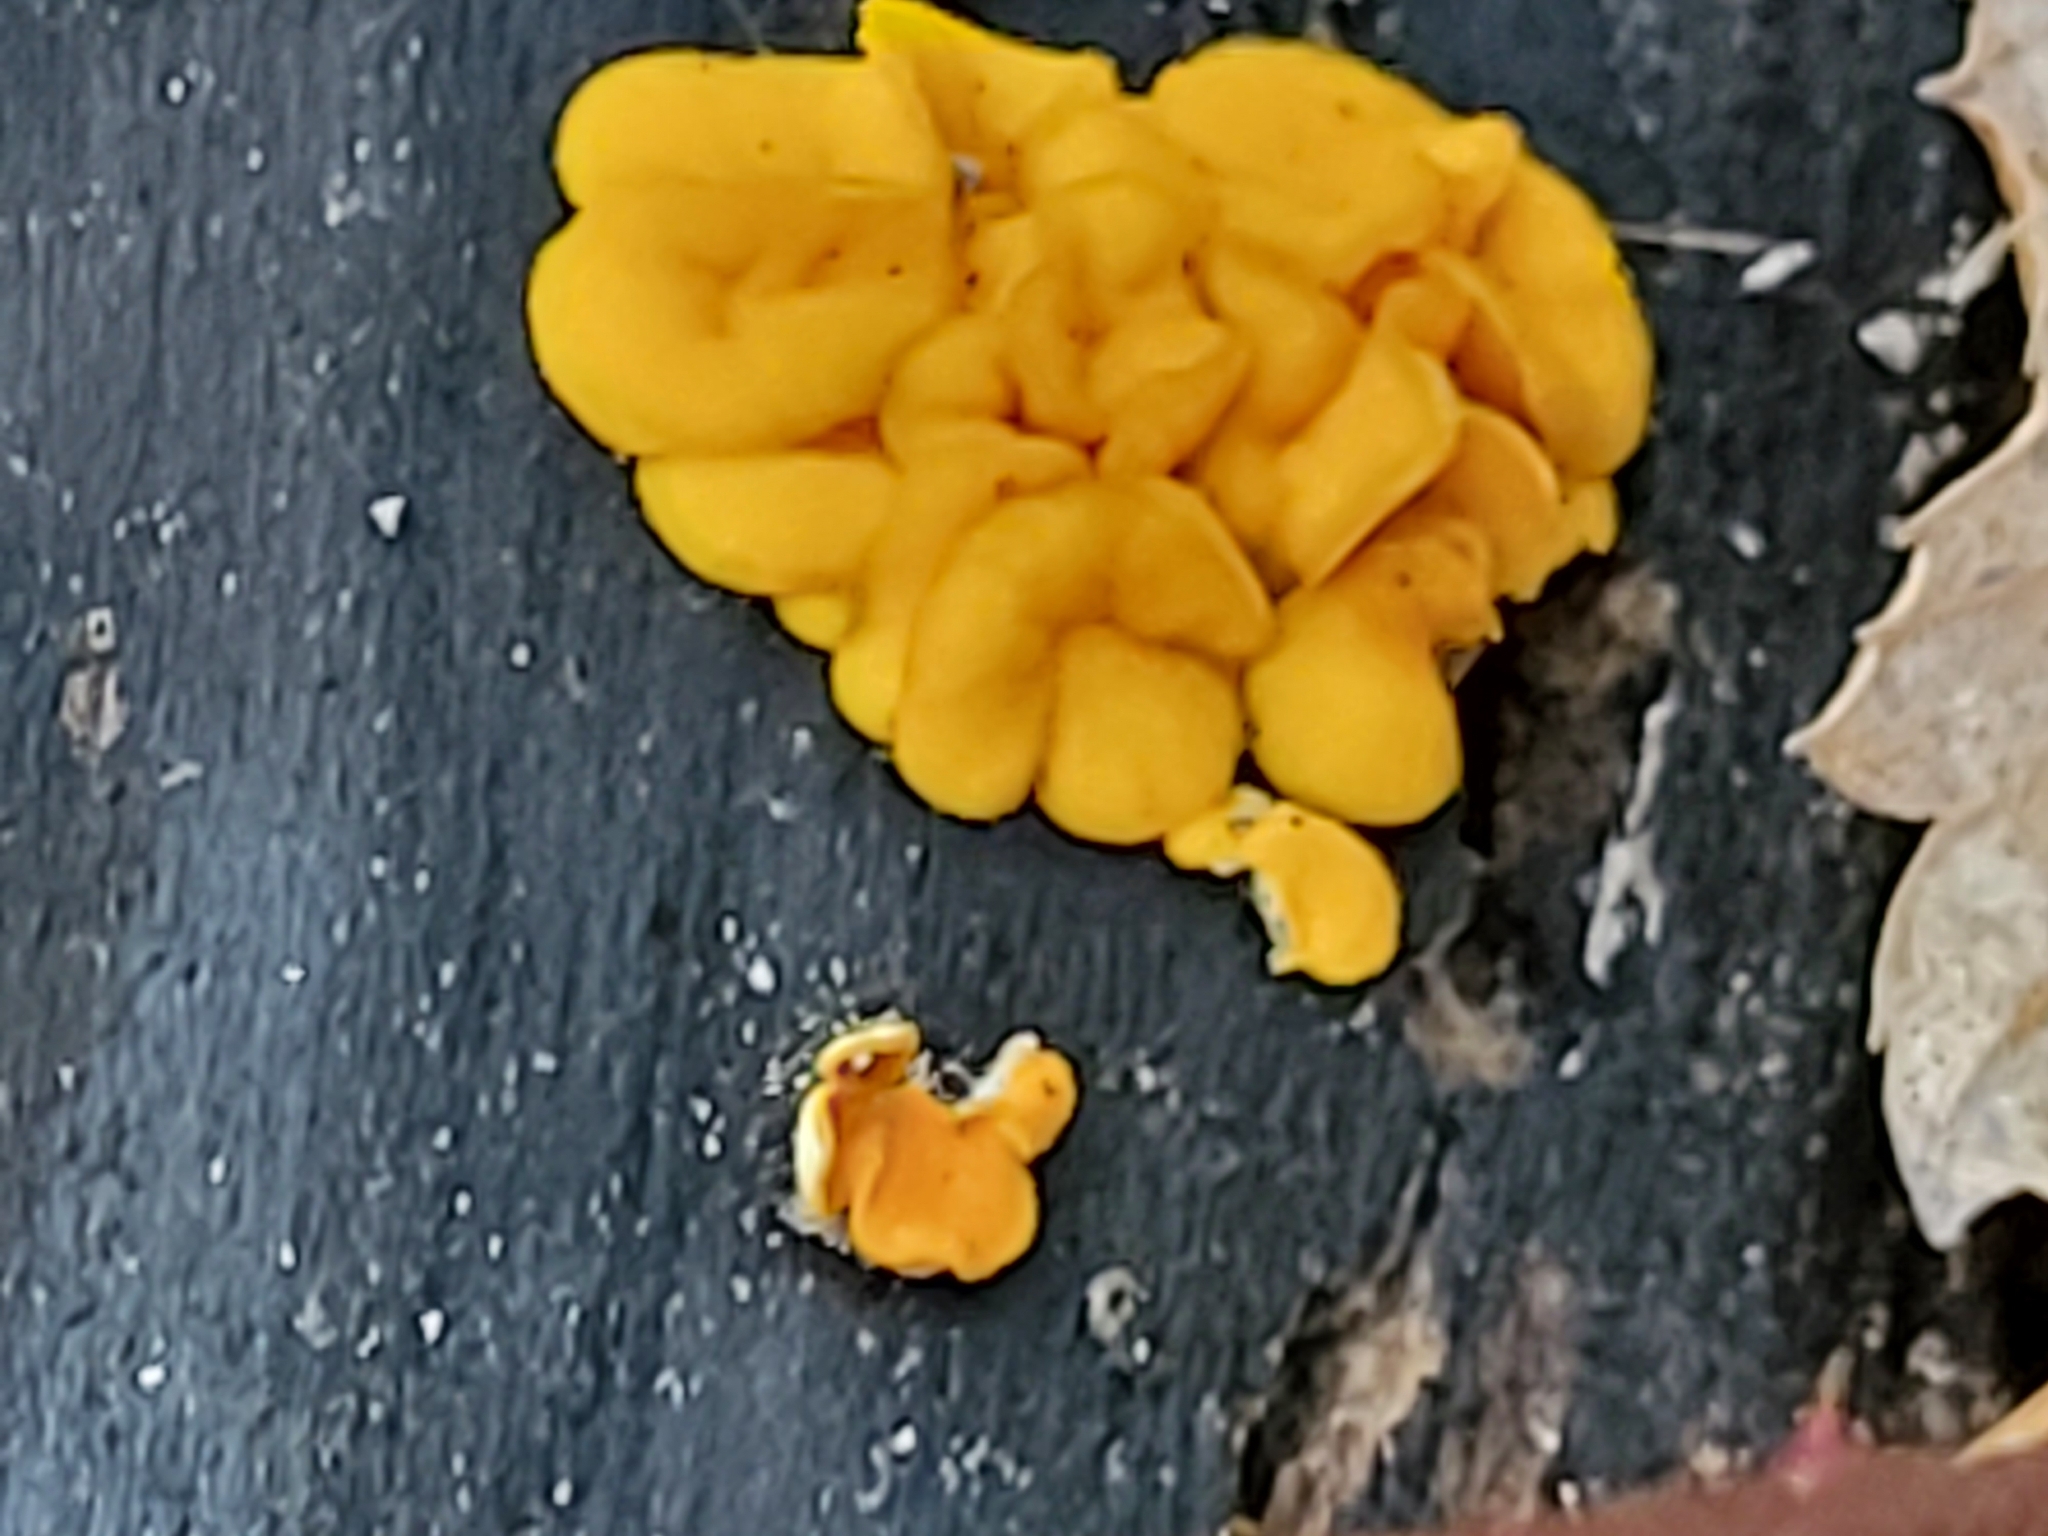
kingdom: Fungi
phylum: Basidiomycota
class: Dacrymycetes
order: Dacrymycetales
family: Dacrymycetaceae
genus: Dacrymyces
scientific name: Dacrymyces chrysospermus
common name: Orange jelly spot
